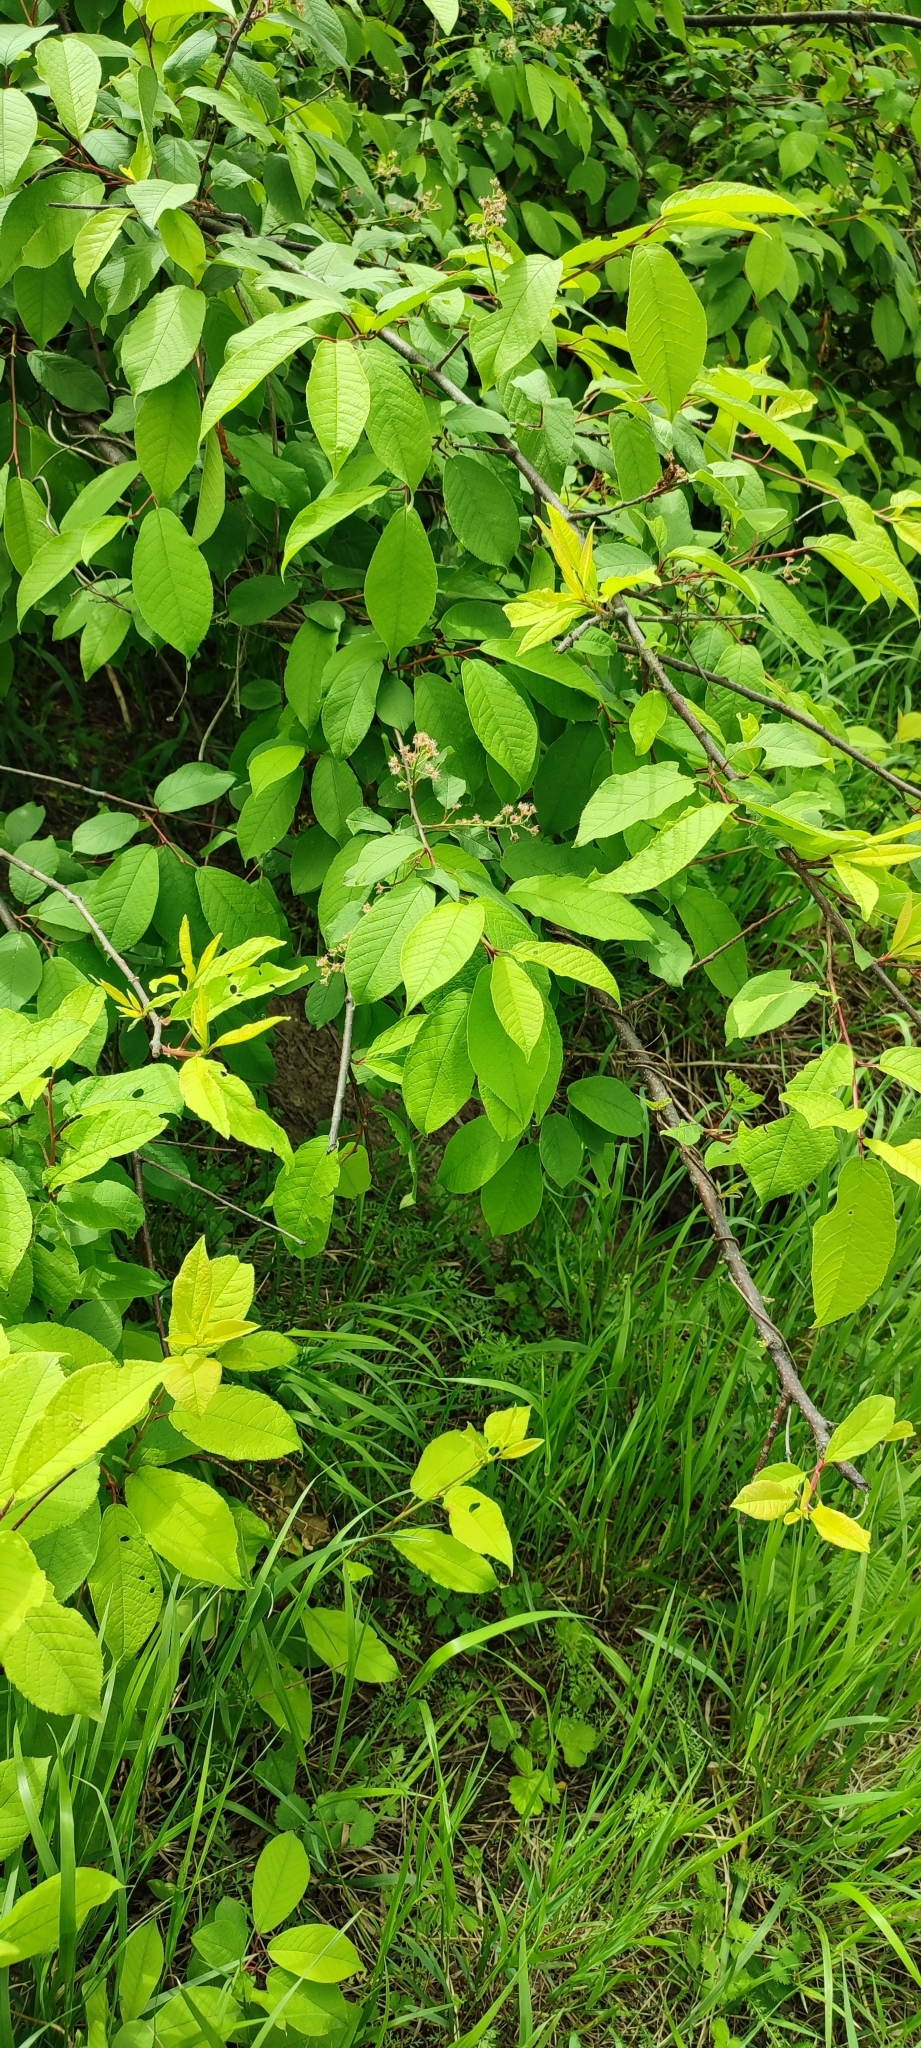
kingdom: Plantae
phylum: Tracheophyta
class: Magnoliopsida
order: Rosales
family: Rosaceae
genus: Prunus
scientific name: Prunus padus
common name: Bird cherry
